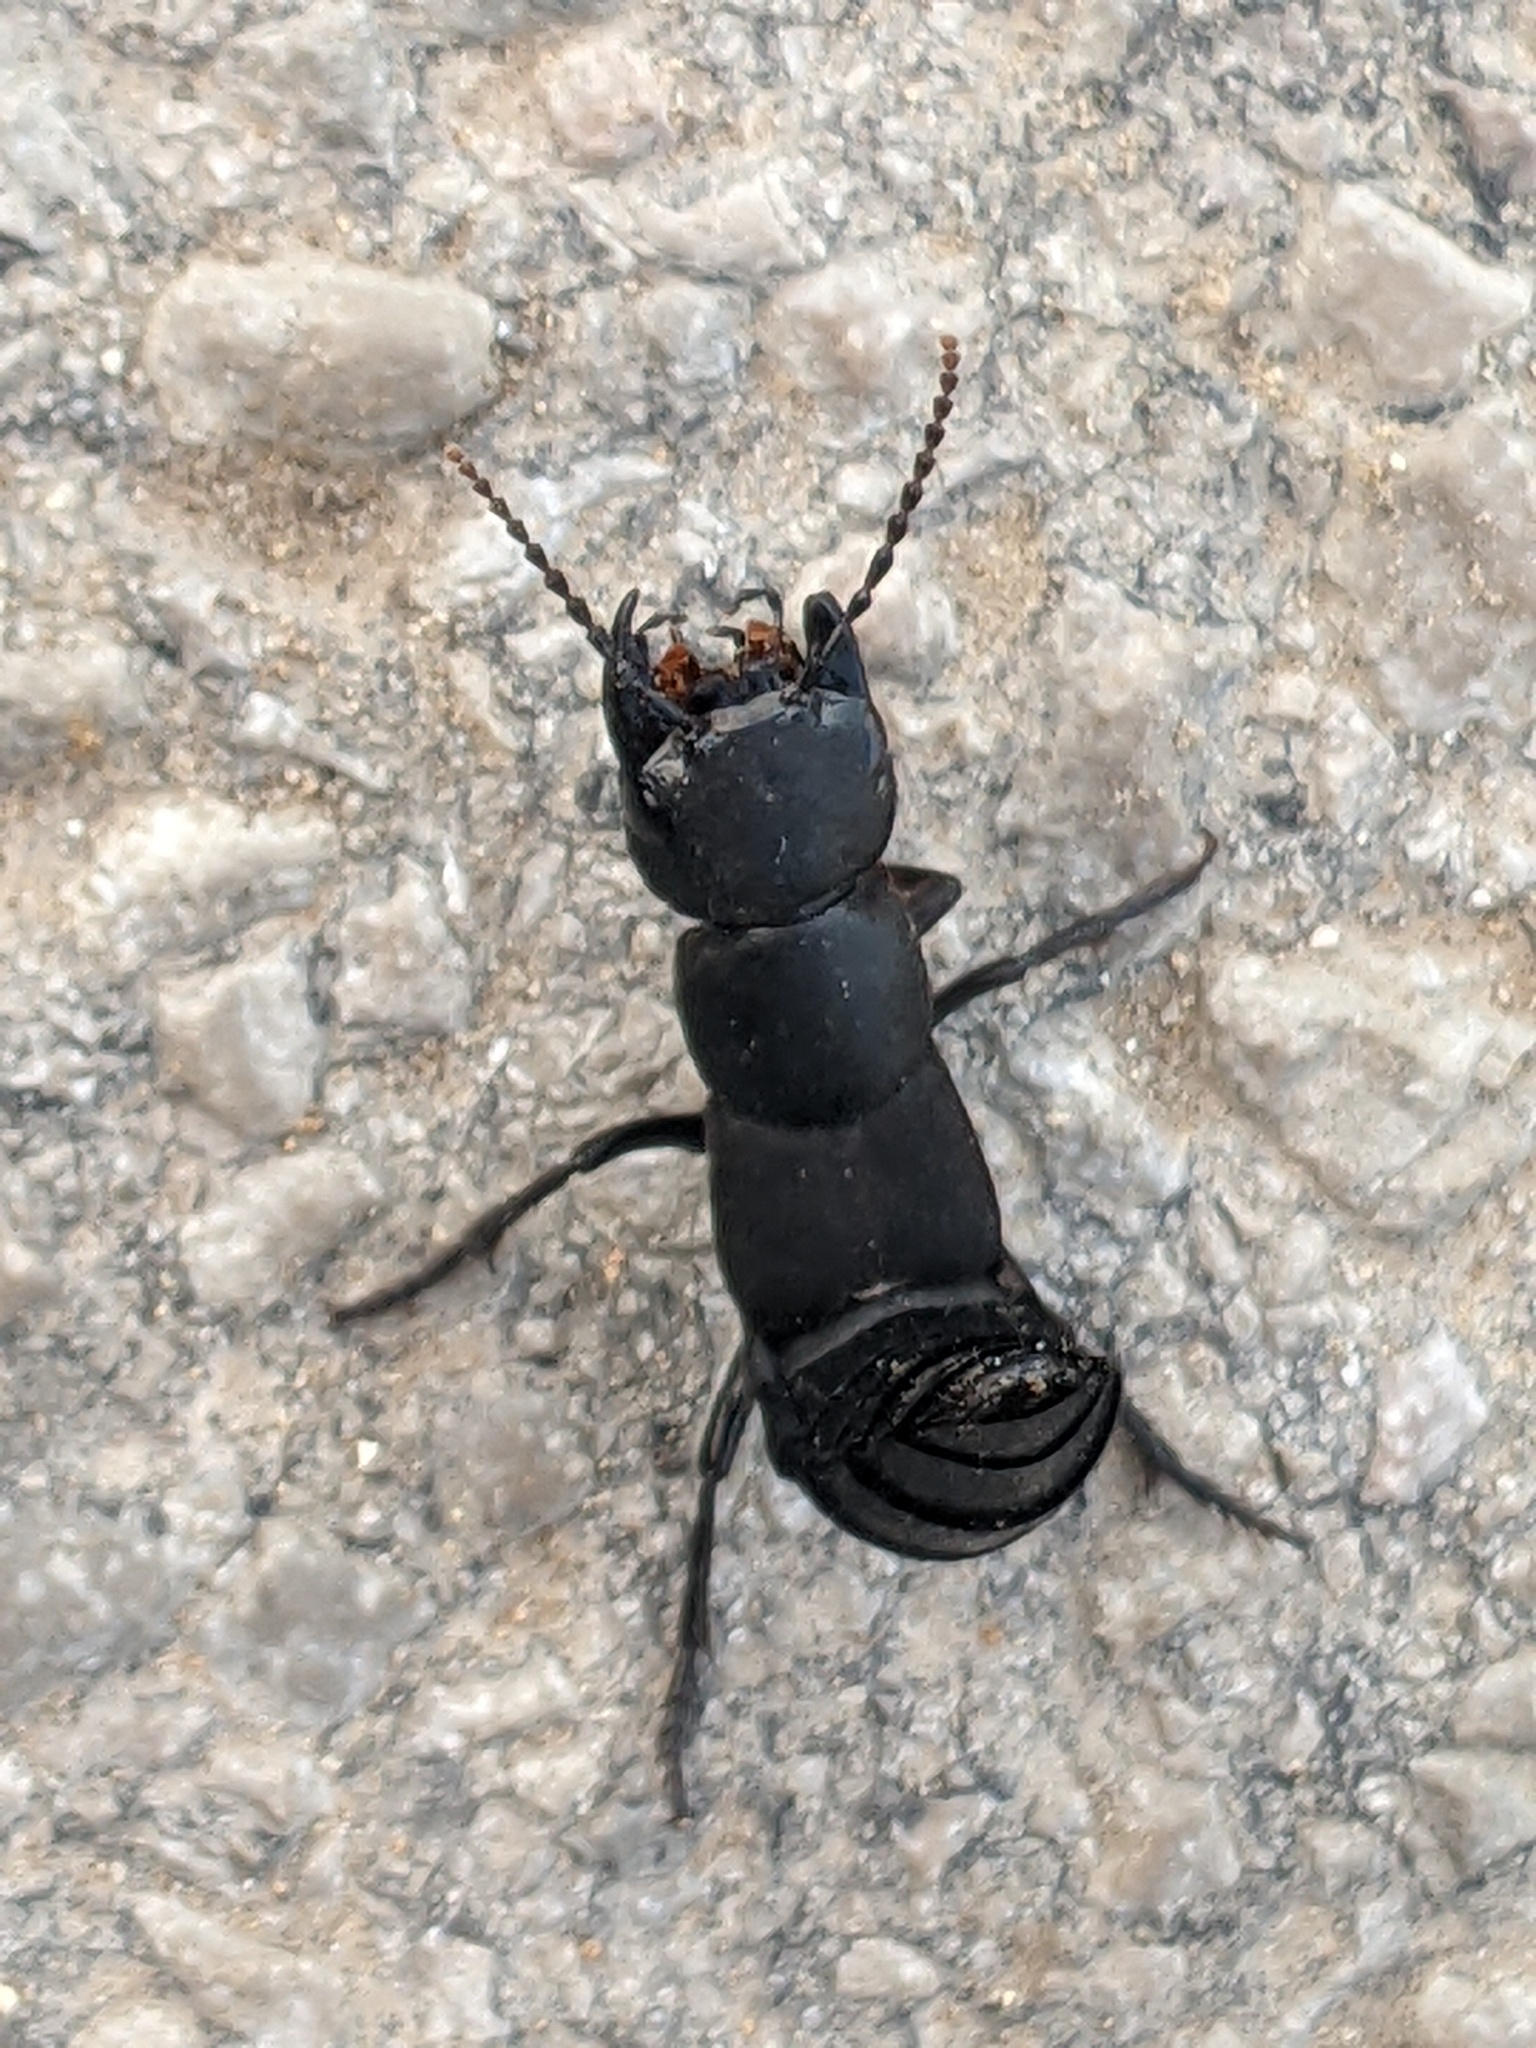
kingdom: Animalia
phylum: Arthropoda
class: Insecta
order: Coleoptera
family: Staphylinidae
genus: Ocypus
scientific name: Ocypus olens
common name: Devil's coach-horse
